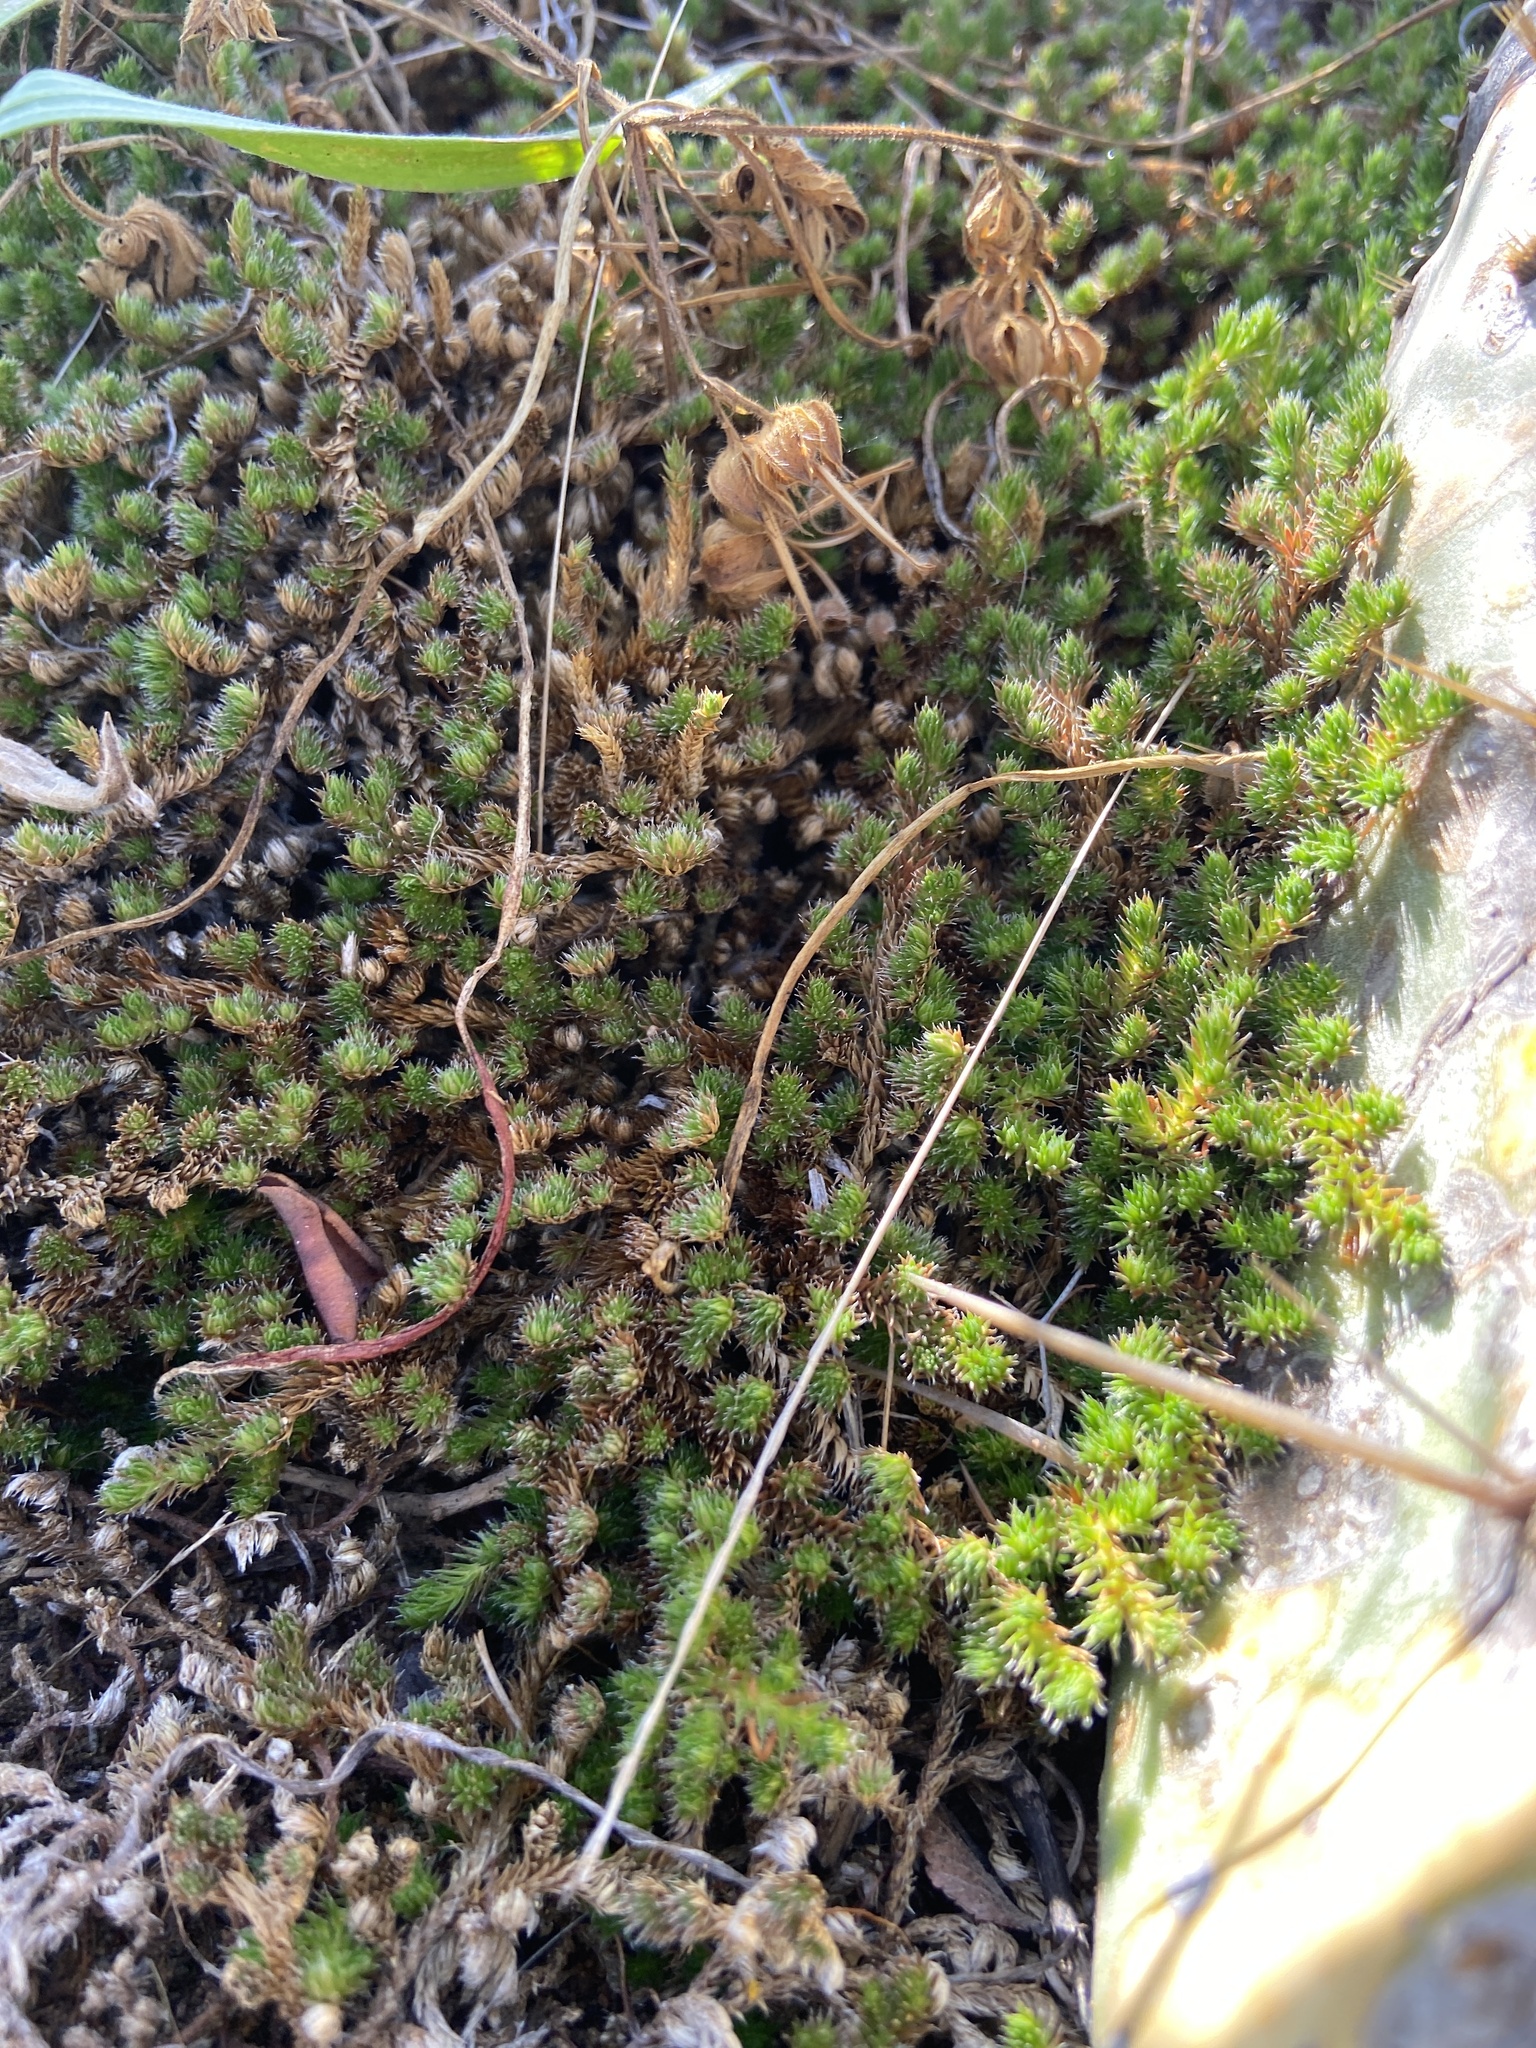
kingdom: Plantae
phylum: Tracheophyta
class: Lycopodiopsida
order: Selaginellales
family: Selaginellaceae
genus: Selaginella
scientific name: Selaginella peruviana
